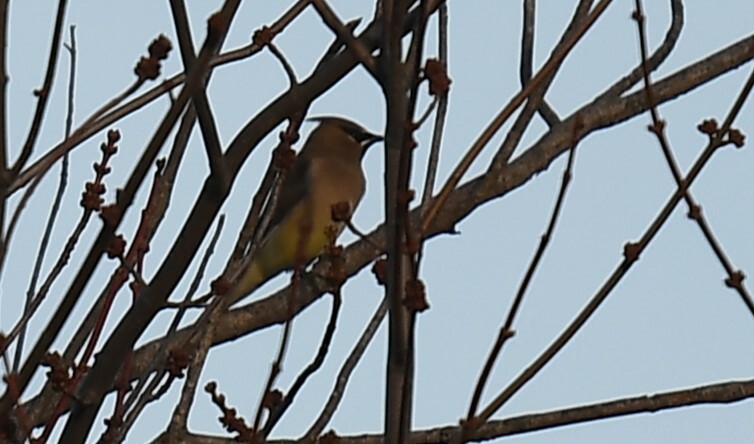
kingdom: Animalia
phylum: Chordata
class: Aves
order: Passeriformes
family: Bombycillidae
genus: Bombycilla
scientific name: Bombycilla cedrorum
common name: Cedar waxwing
